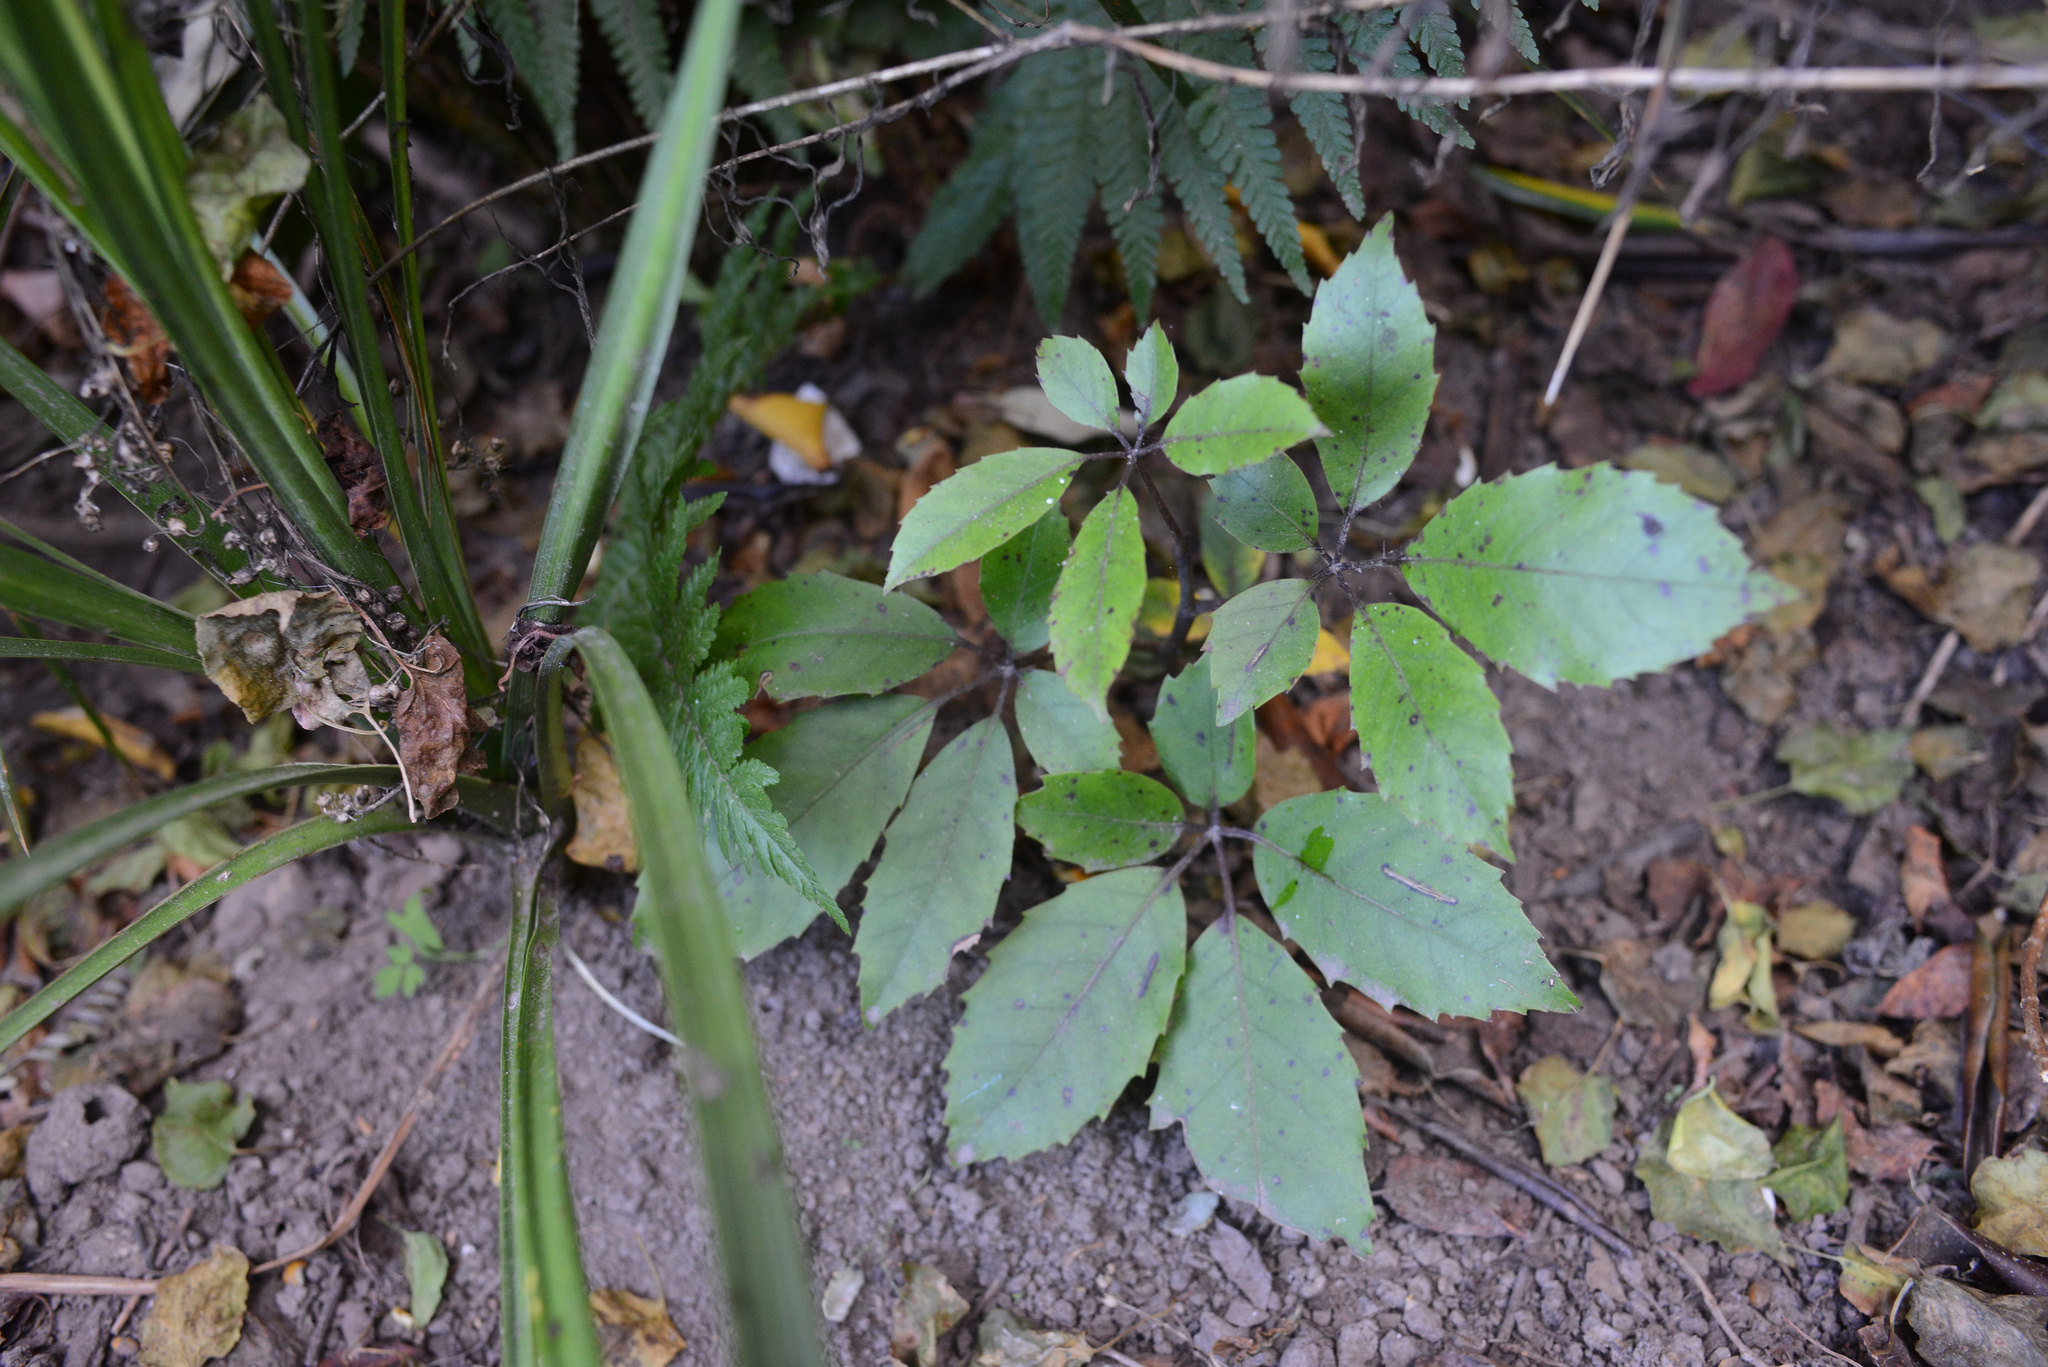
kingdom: Plantae
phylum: Tracheophyta
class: Magnoliopsida
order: Apiales
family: Araliaceae
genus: Neopanax
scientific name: Neopanax arboreus
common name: Five-fingers
